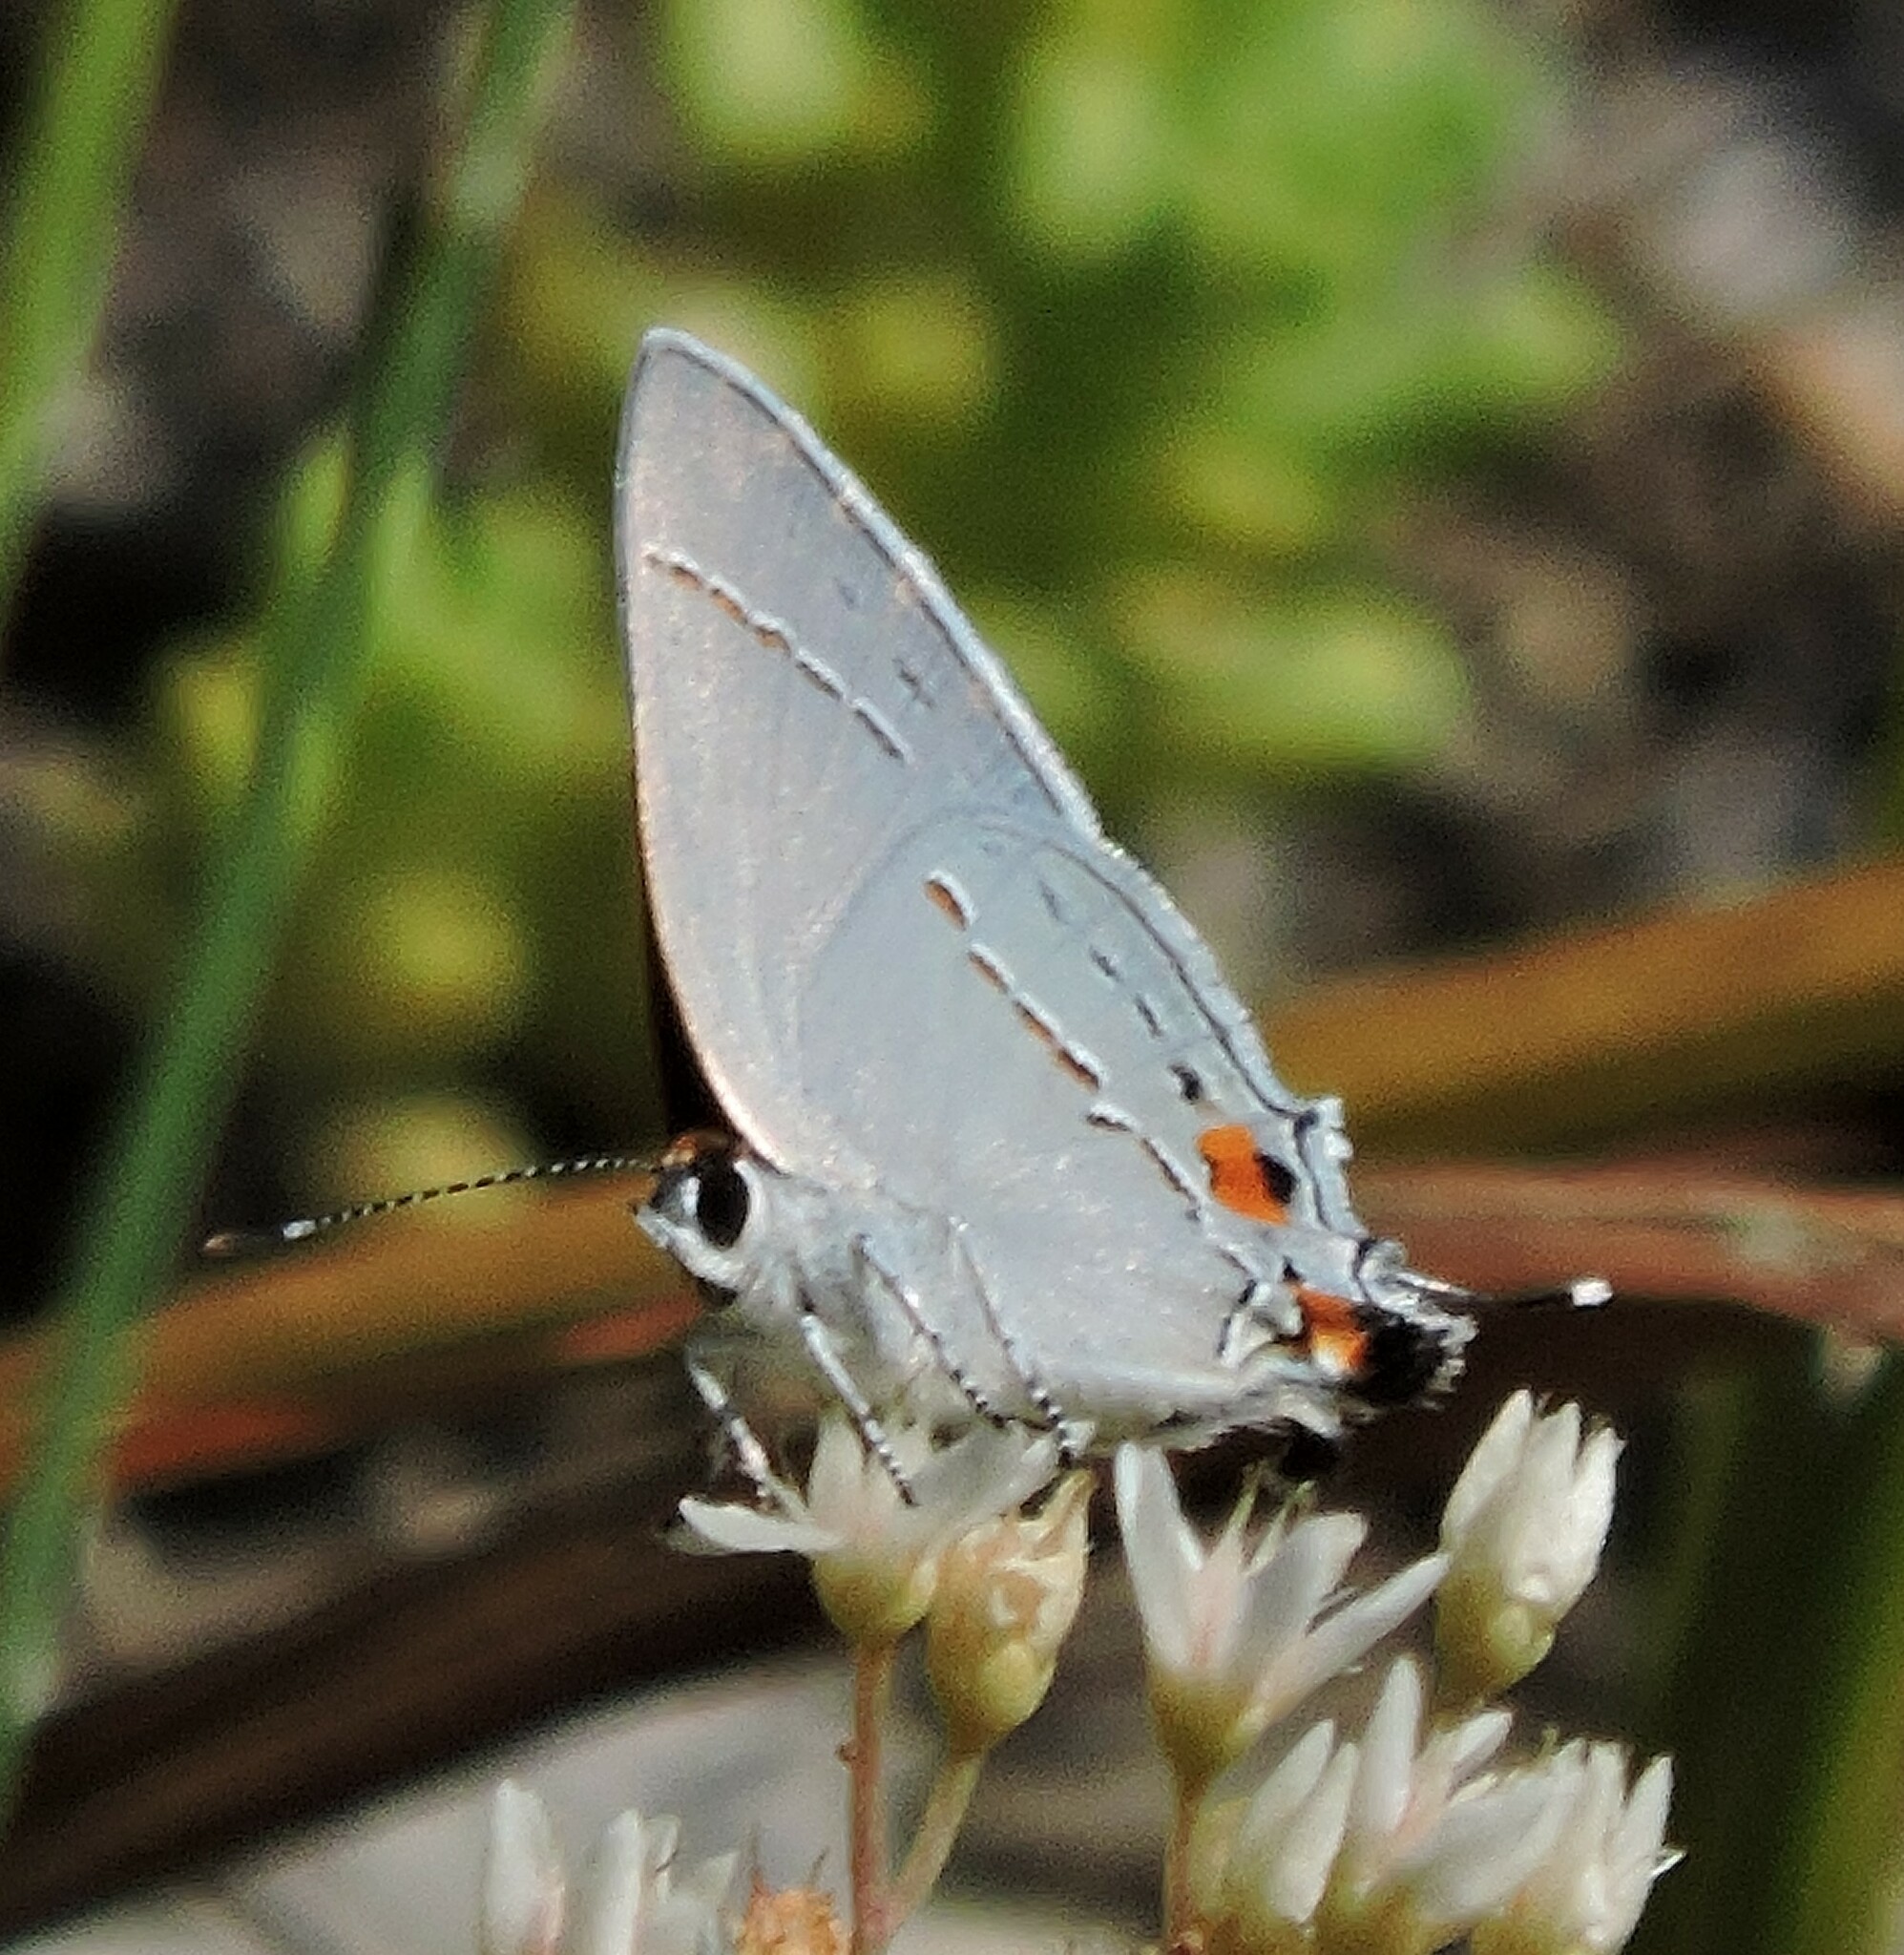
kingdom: Animalia
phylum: Arthropoda
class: Insecta
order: Lepidoptera
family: Lycaenidae
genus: Strymon
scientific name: Strymon melinus
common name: Gray hairstreak
